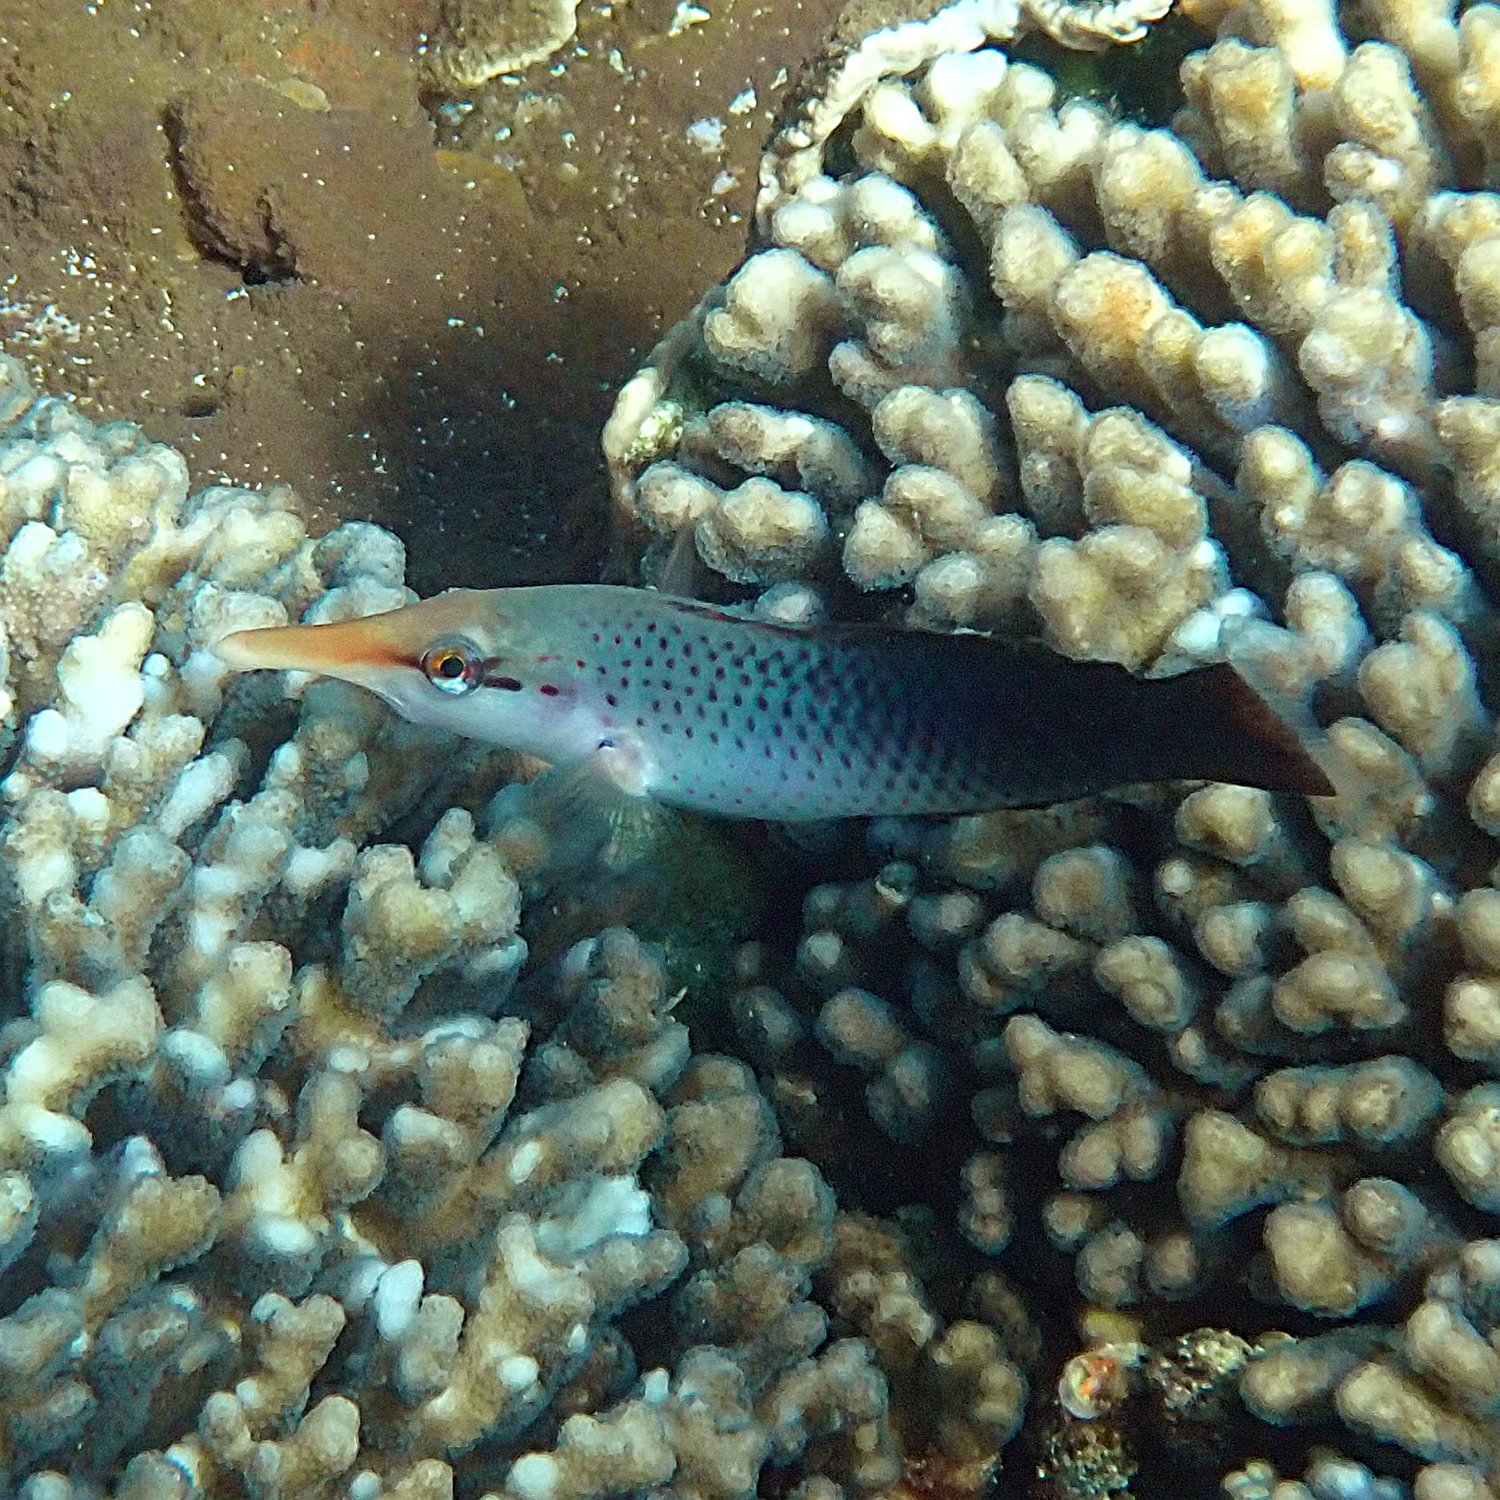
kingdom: Animalia
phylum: Chordata
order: Perciformes
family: Labridae
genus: Gomphosus
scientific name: Gomphosus varius
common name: Bird wrasse
